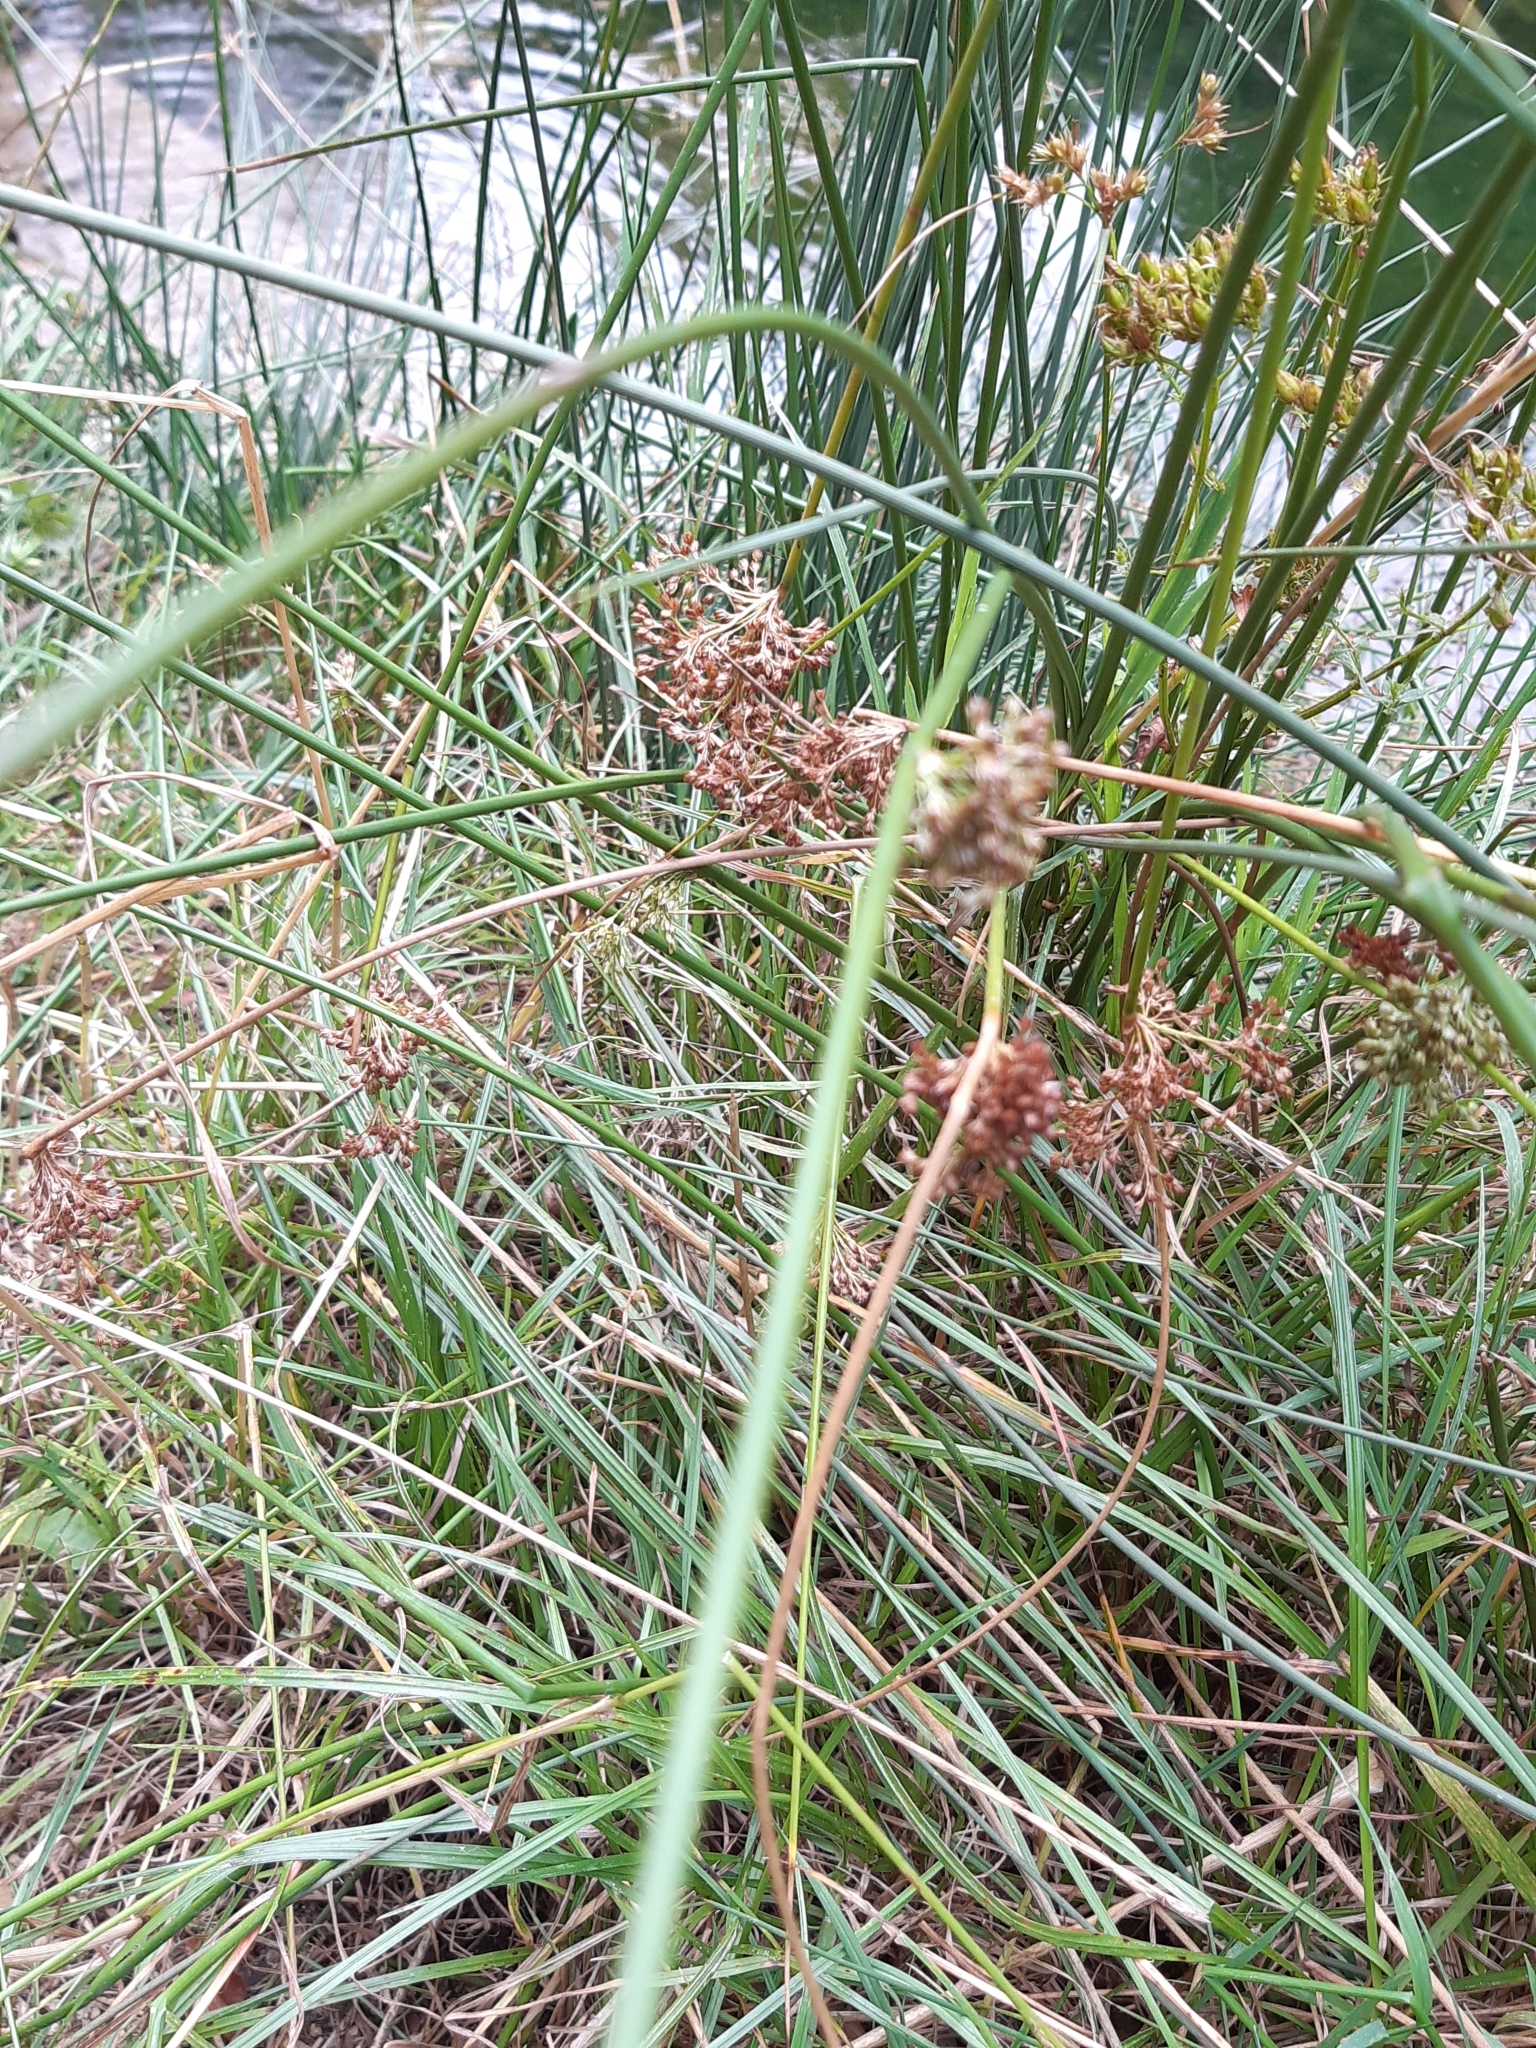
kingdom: Plantae
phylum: Tracheophyta
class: Liliopsida
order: Poales
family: Juncaceae
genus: Juncus
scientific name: Juncus effusus
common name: Soft rush
